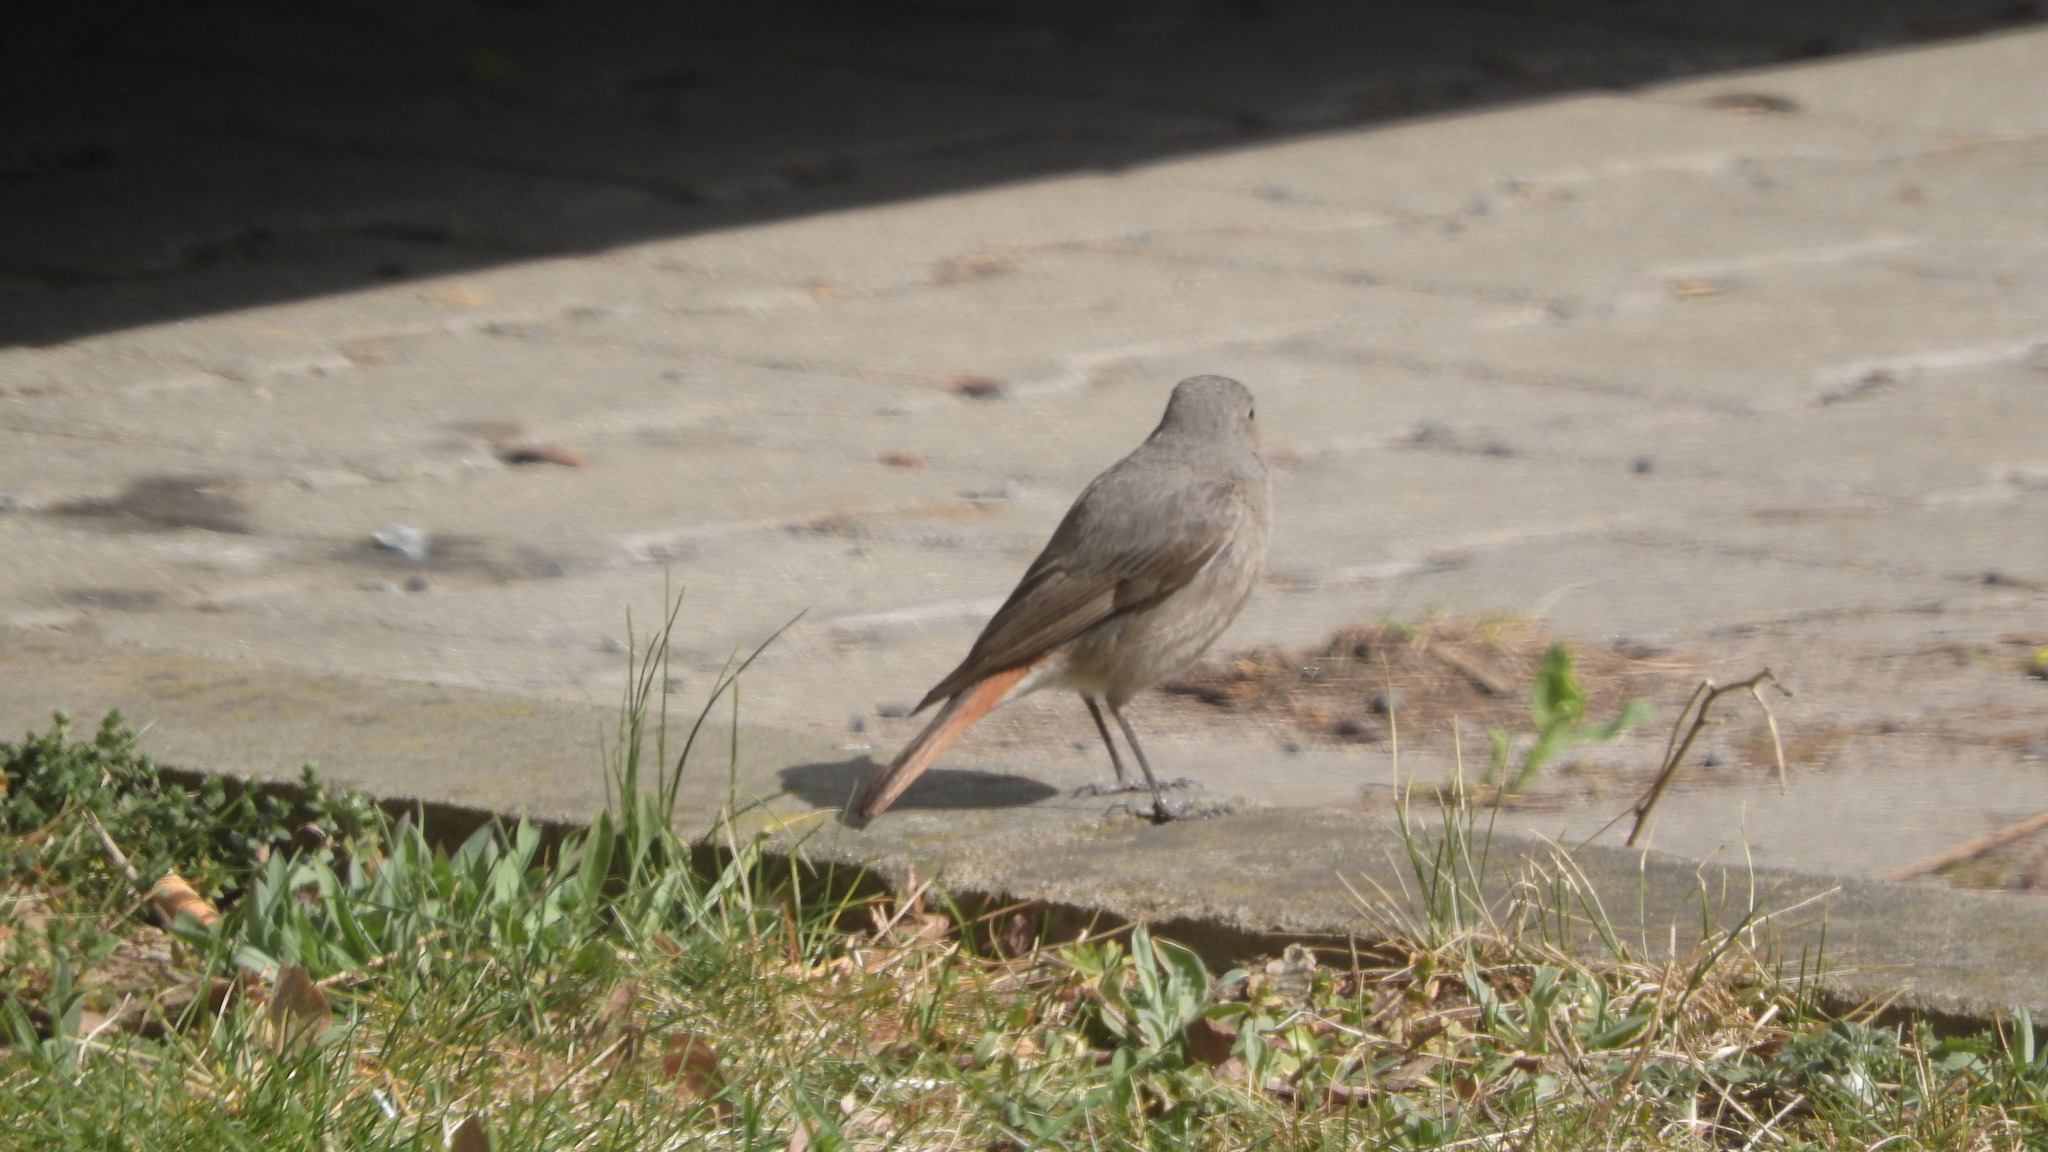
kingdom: Animalia
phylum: Chordata
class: Aves
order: Passeriformes
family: Muscicapidae
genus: Phoenicurus
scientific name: Phoenicurus ochruros
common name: Black redstart
